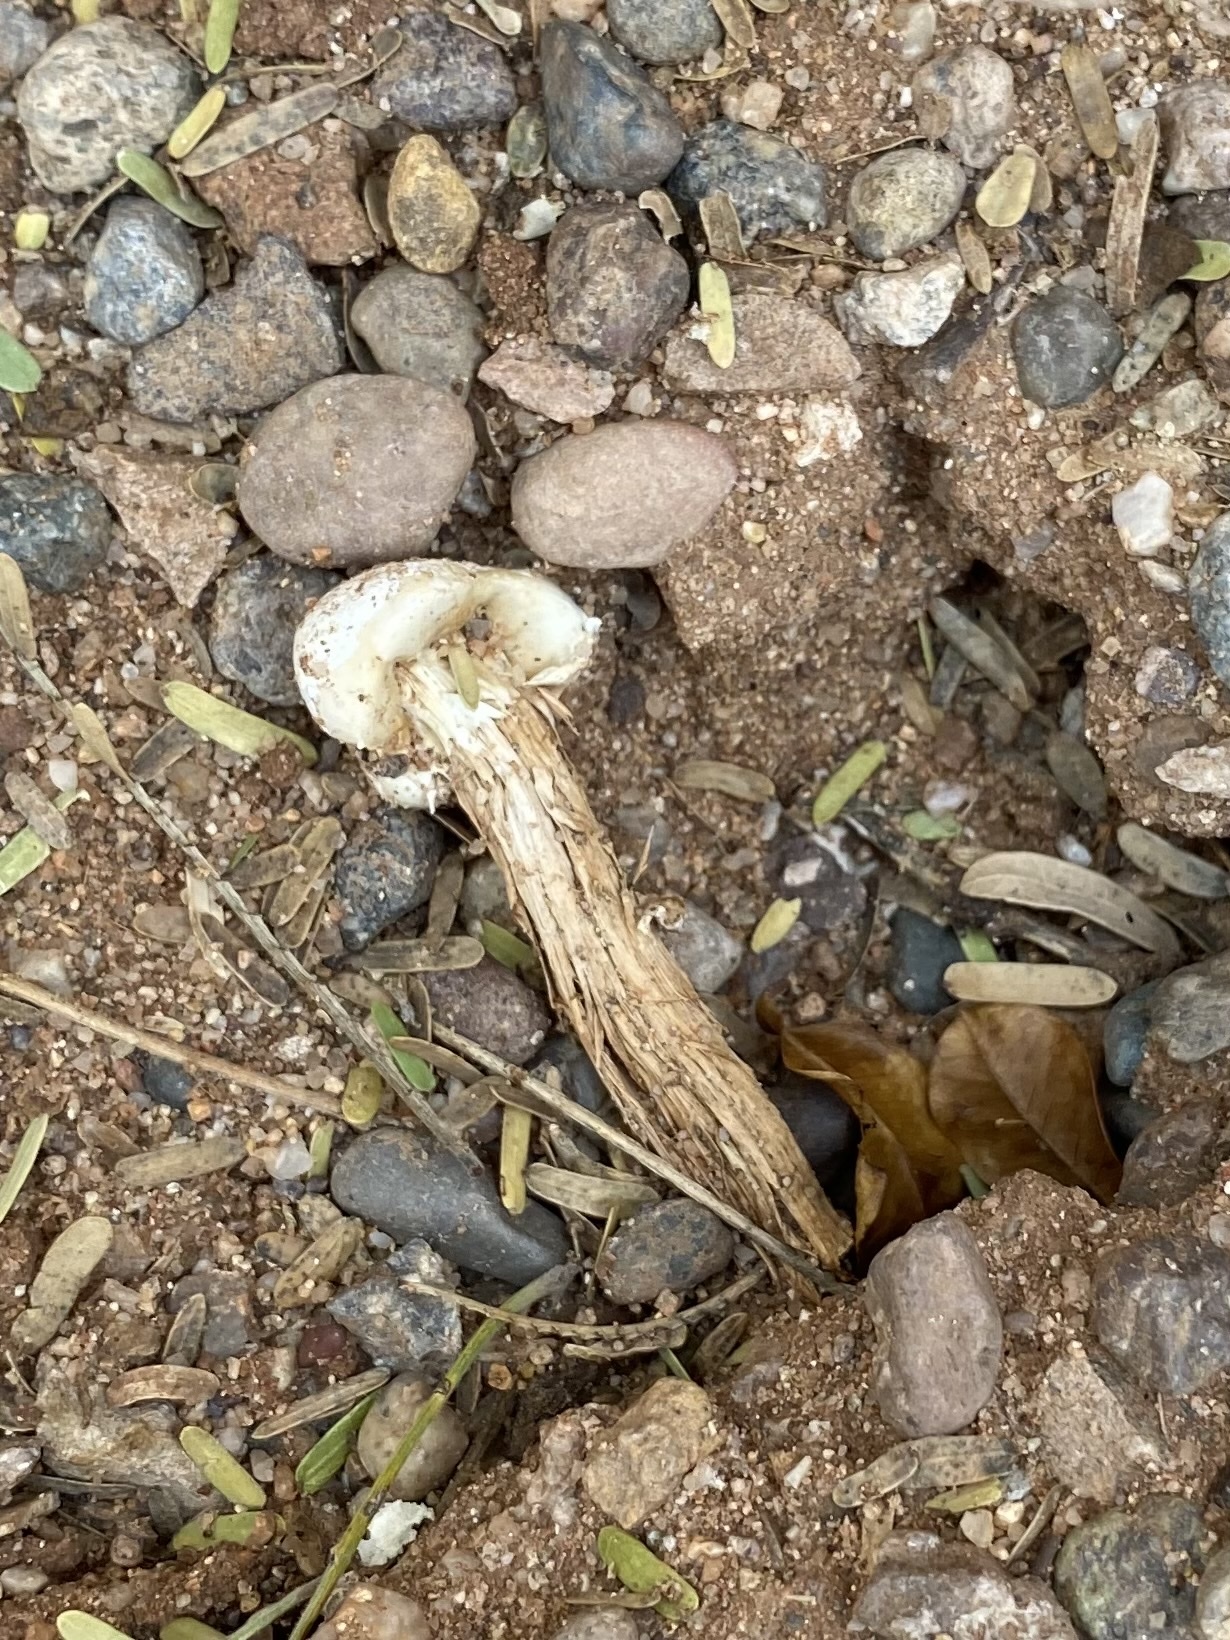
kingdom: Fungi
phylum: Basidiomycota
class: Agaricomycetes
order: Agaricales
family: Agaricaceae
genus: Battarreoides
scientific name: Battarreoides diguetii
